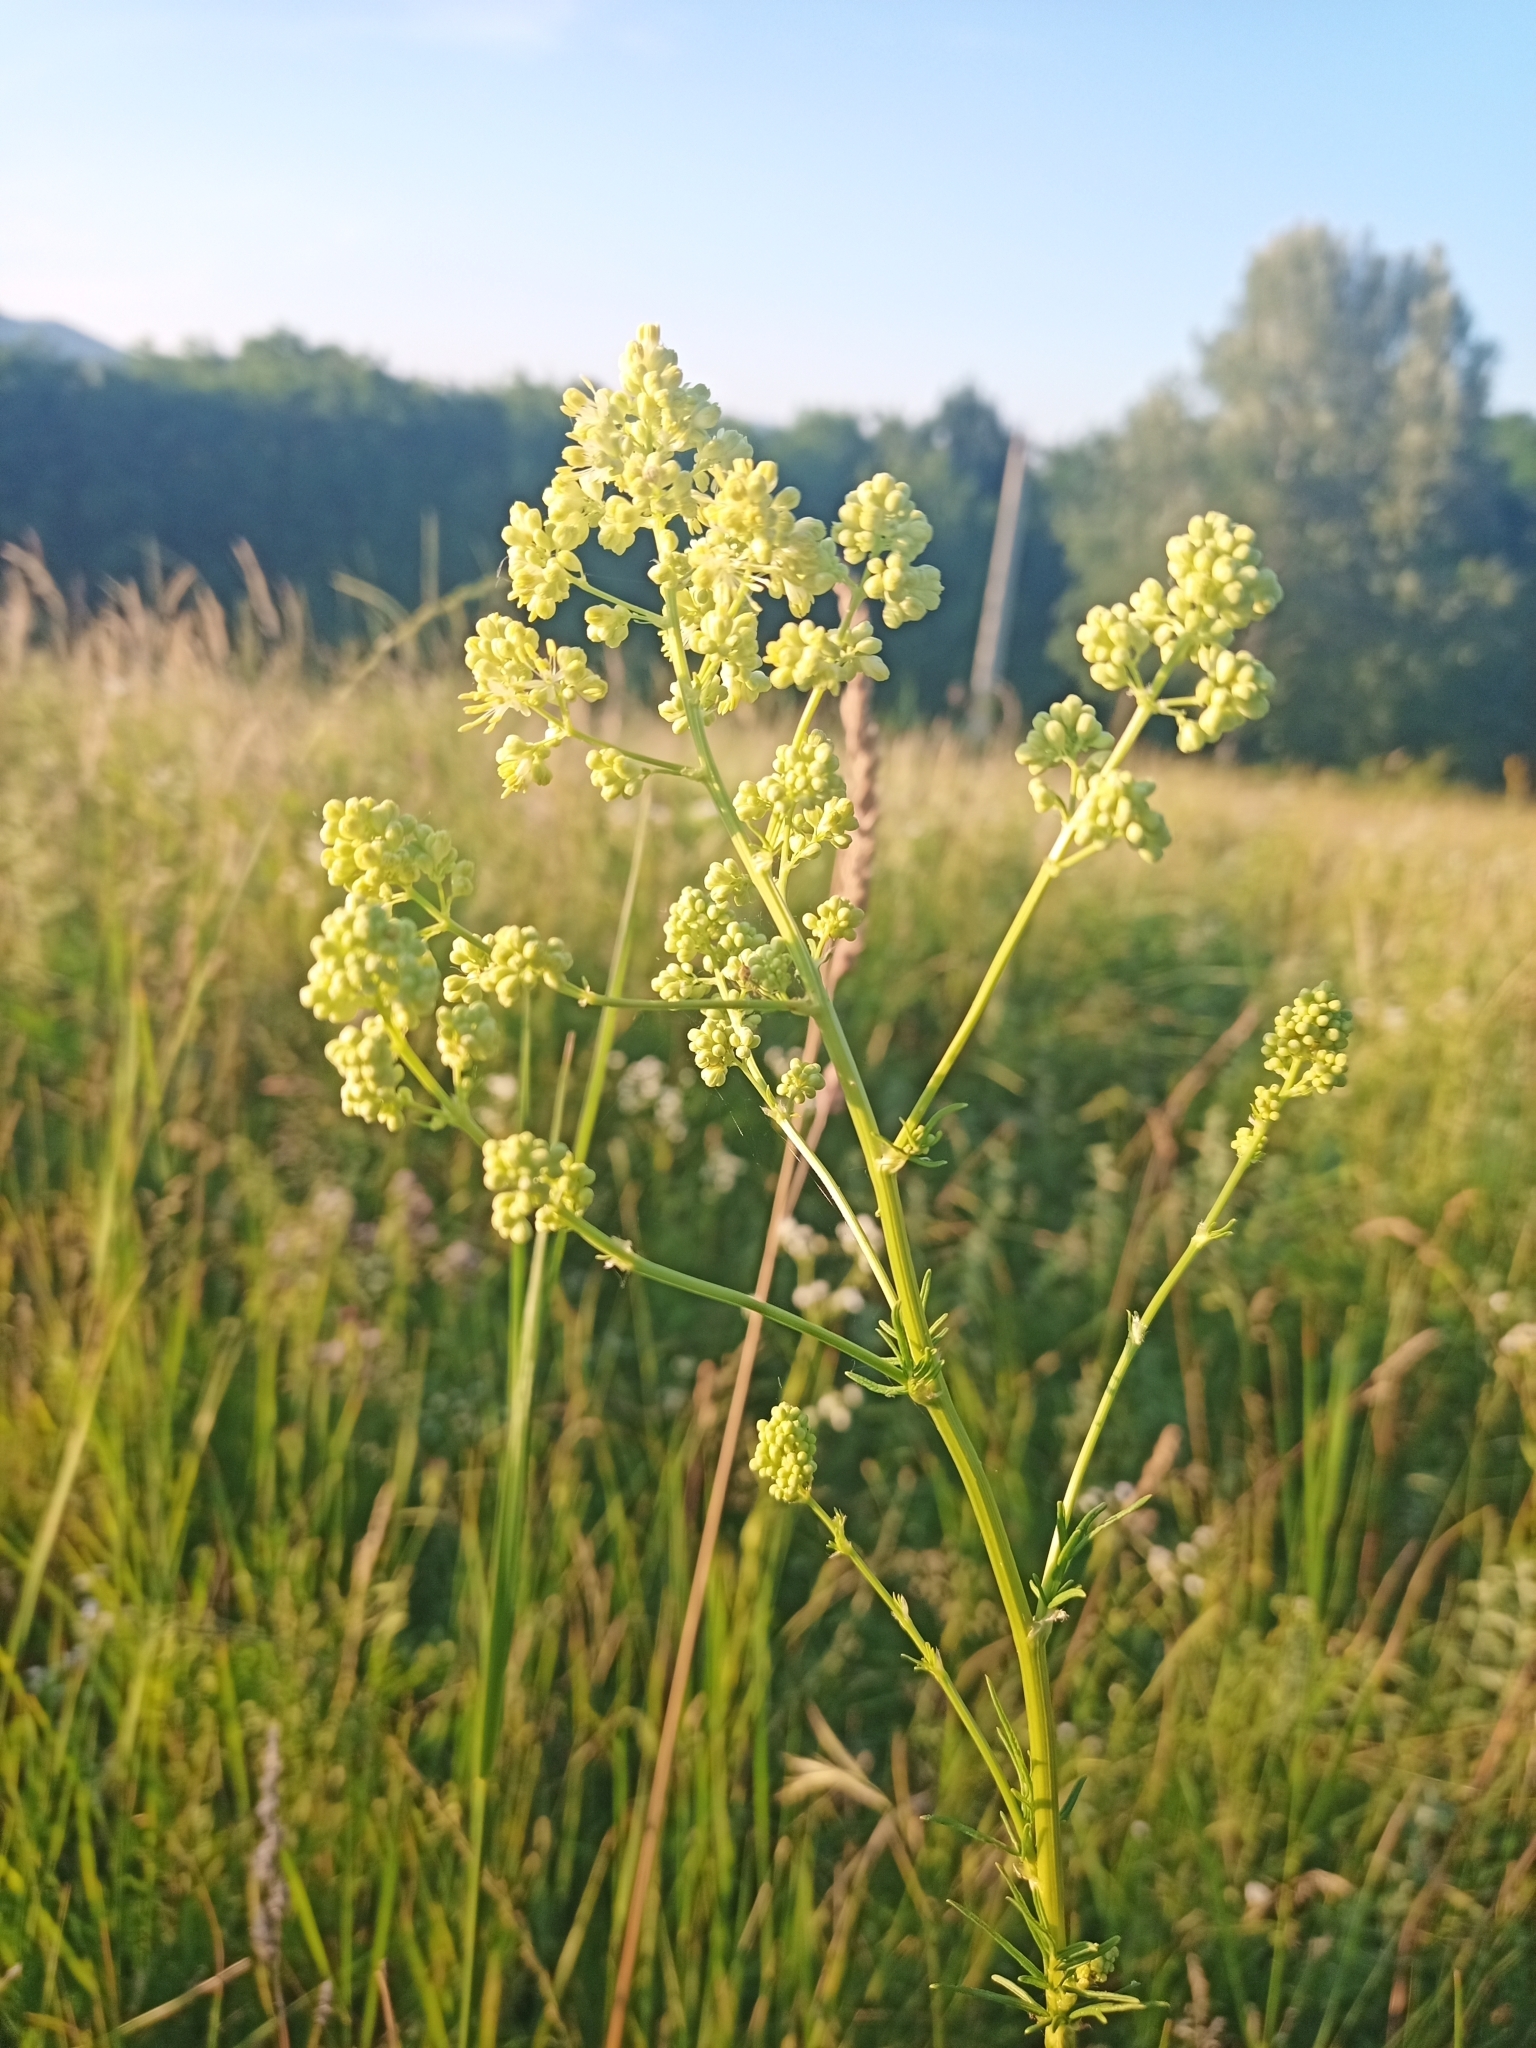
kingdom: Plantae
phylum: Tracheophyta
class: Magnoliopsida
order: Ranunculales
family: Ranunculaceae
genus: Thalictrum
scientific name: Thalictrum lucidum
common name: Shining meadow-rue
